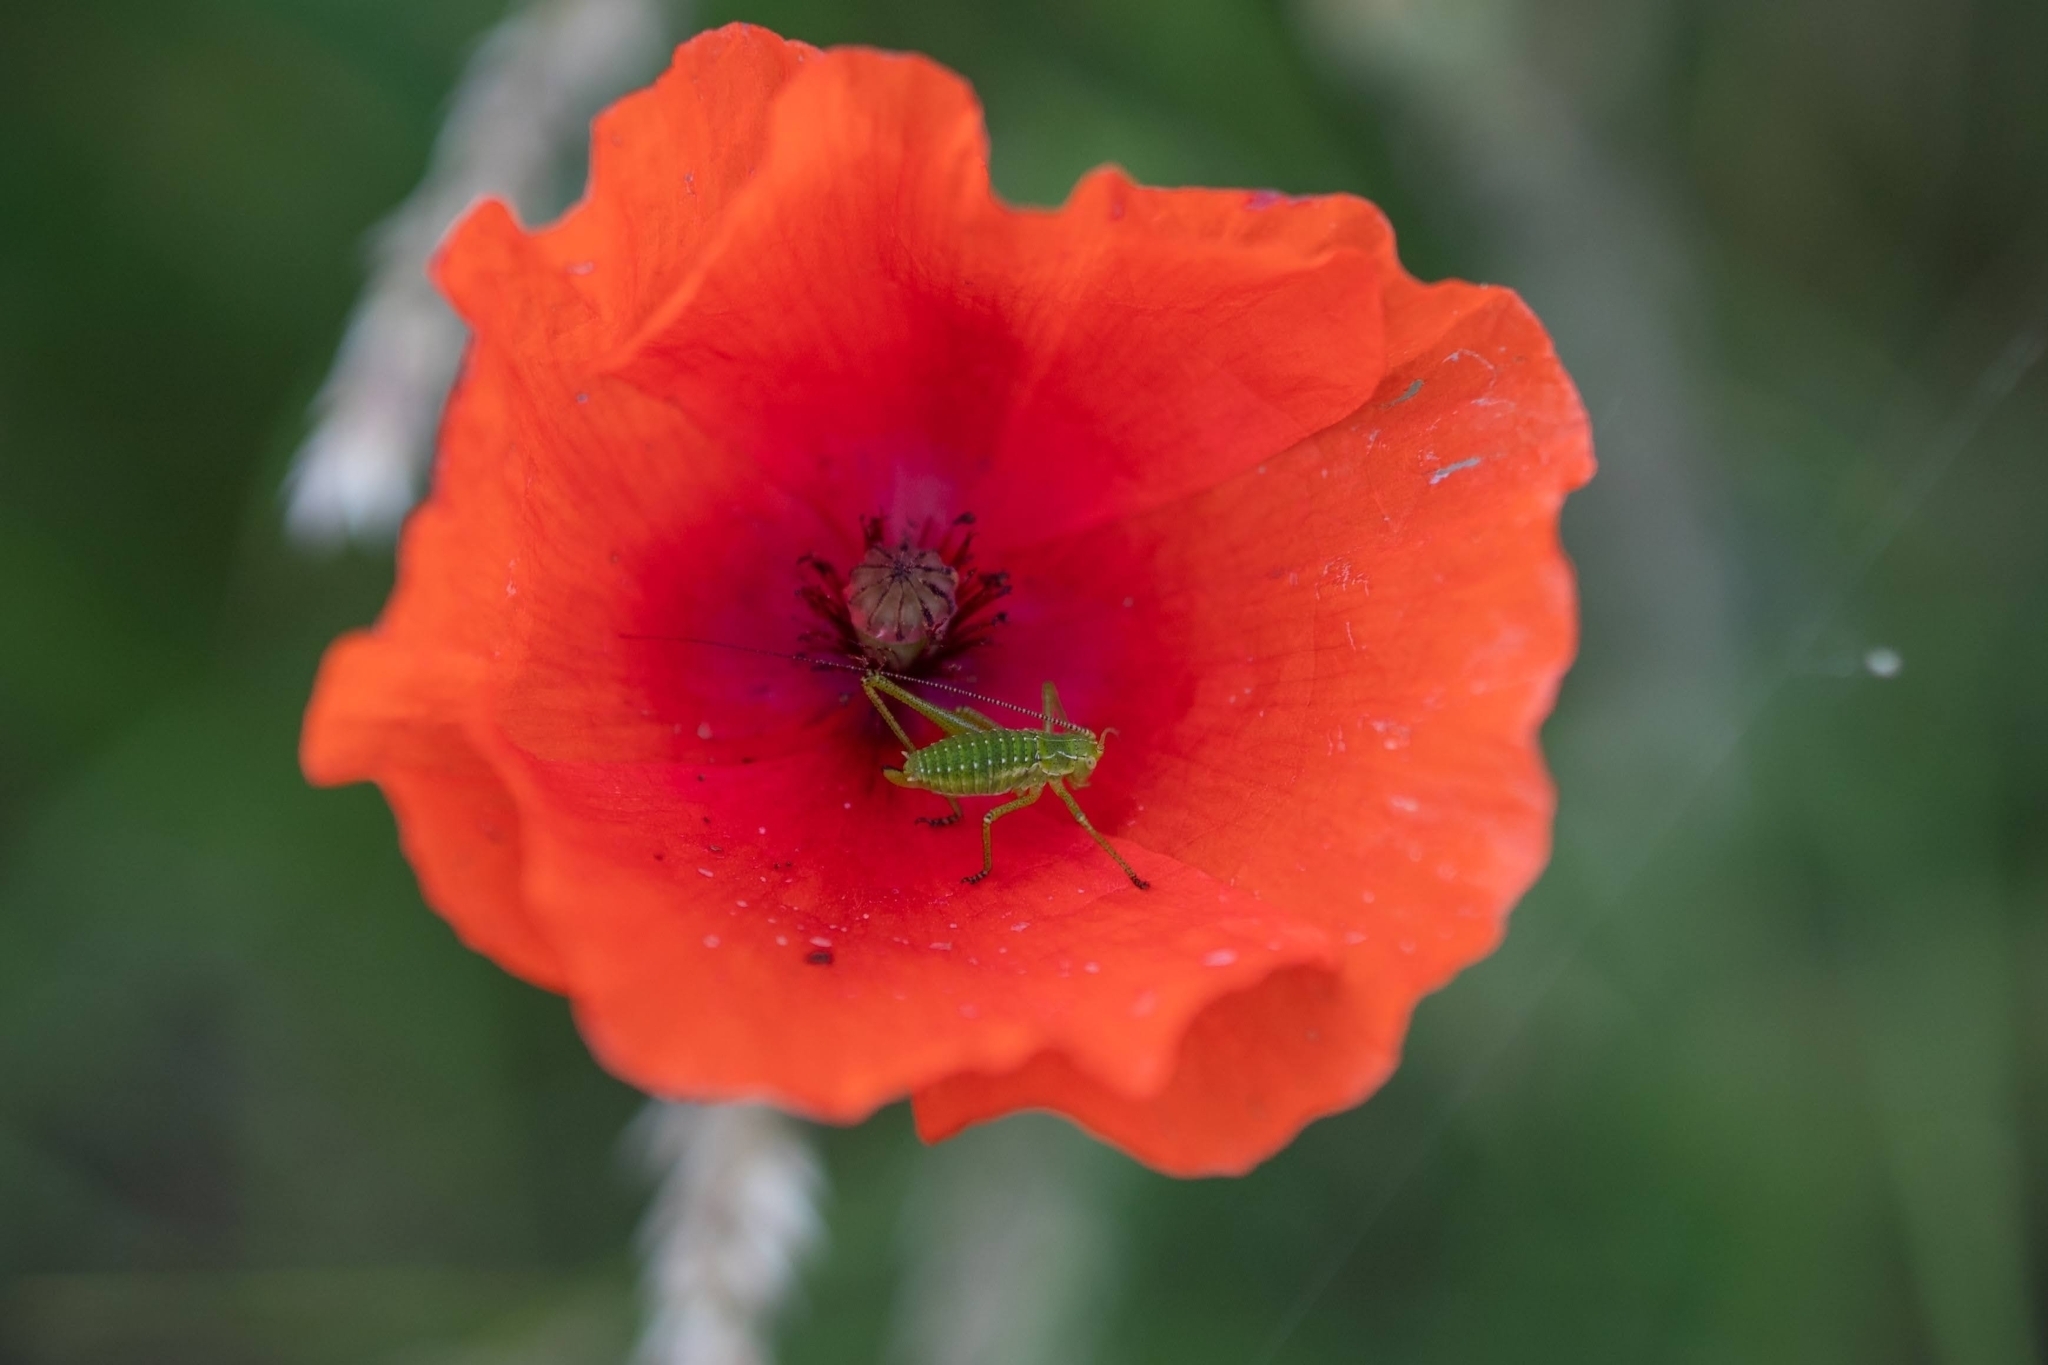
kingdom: Animalia
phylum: Arthropoda
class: Insecta
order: Orthoptera
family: Tettigoniidae
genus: Leptophyes
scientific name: Leptophyes albovittata
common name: Striped bush-cricket
